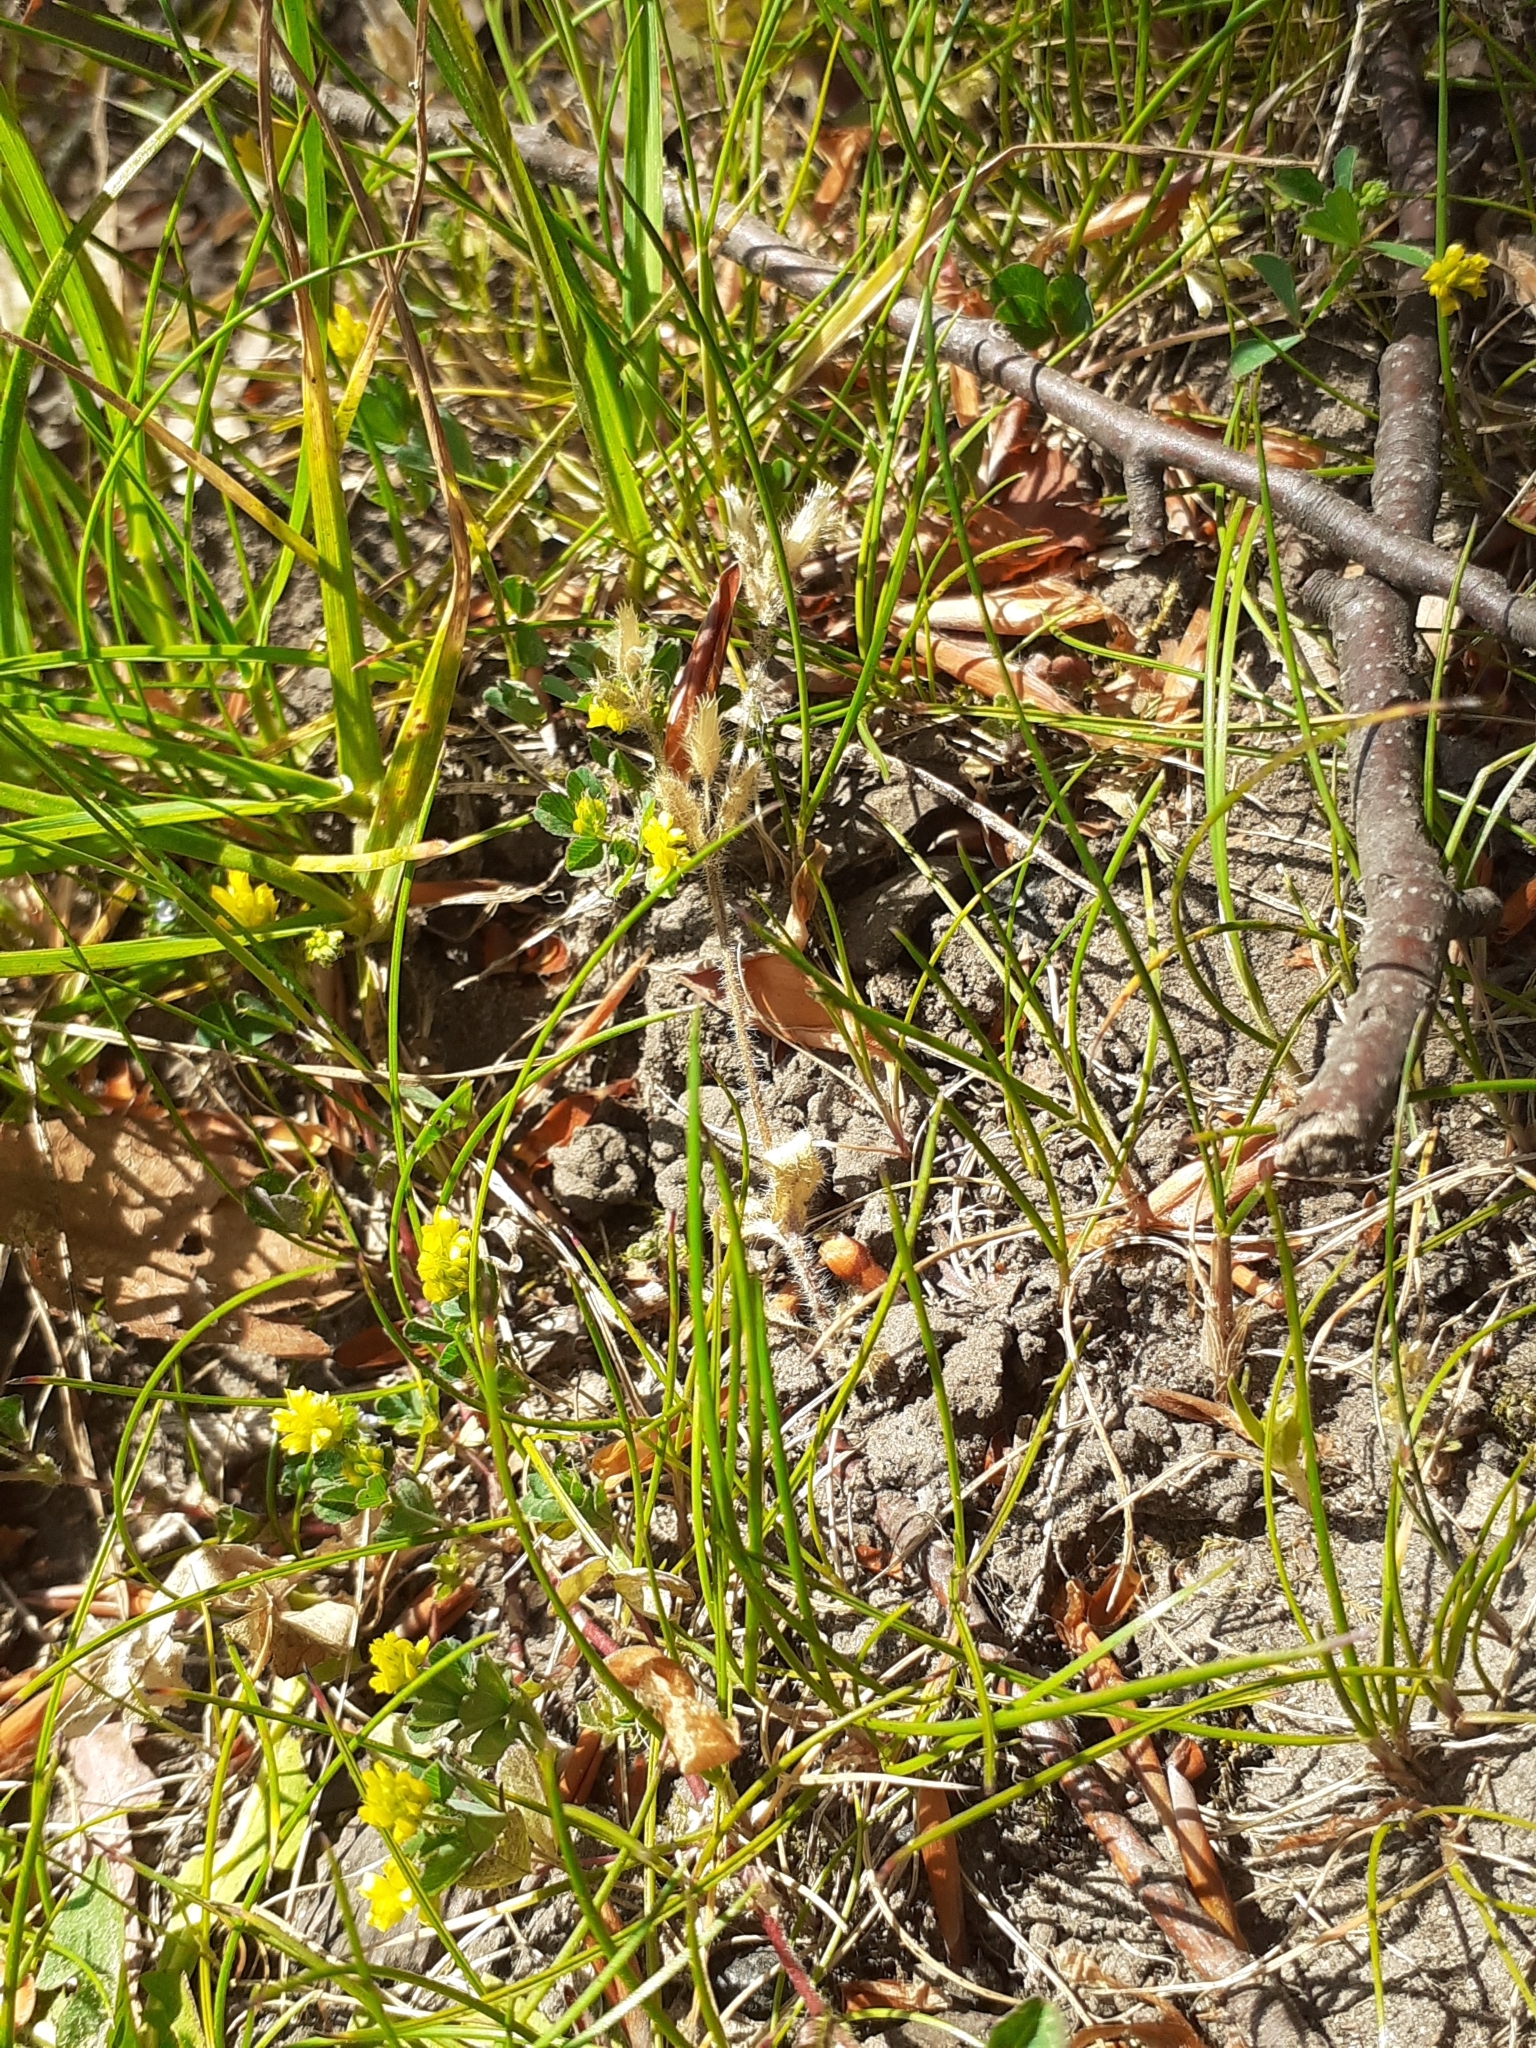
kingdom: Plantae
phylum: Tracheophyta
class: Magnoliopsida
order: Fabales
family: Fabaceae
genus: Trifolium
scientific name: Trifolium dubium
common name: Suckling clover
